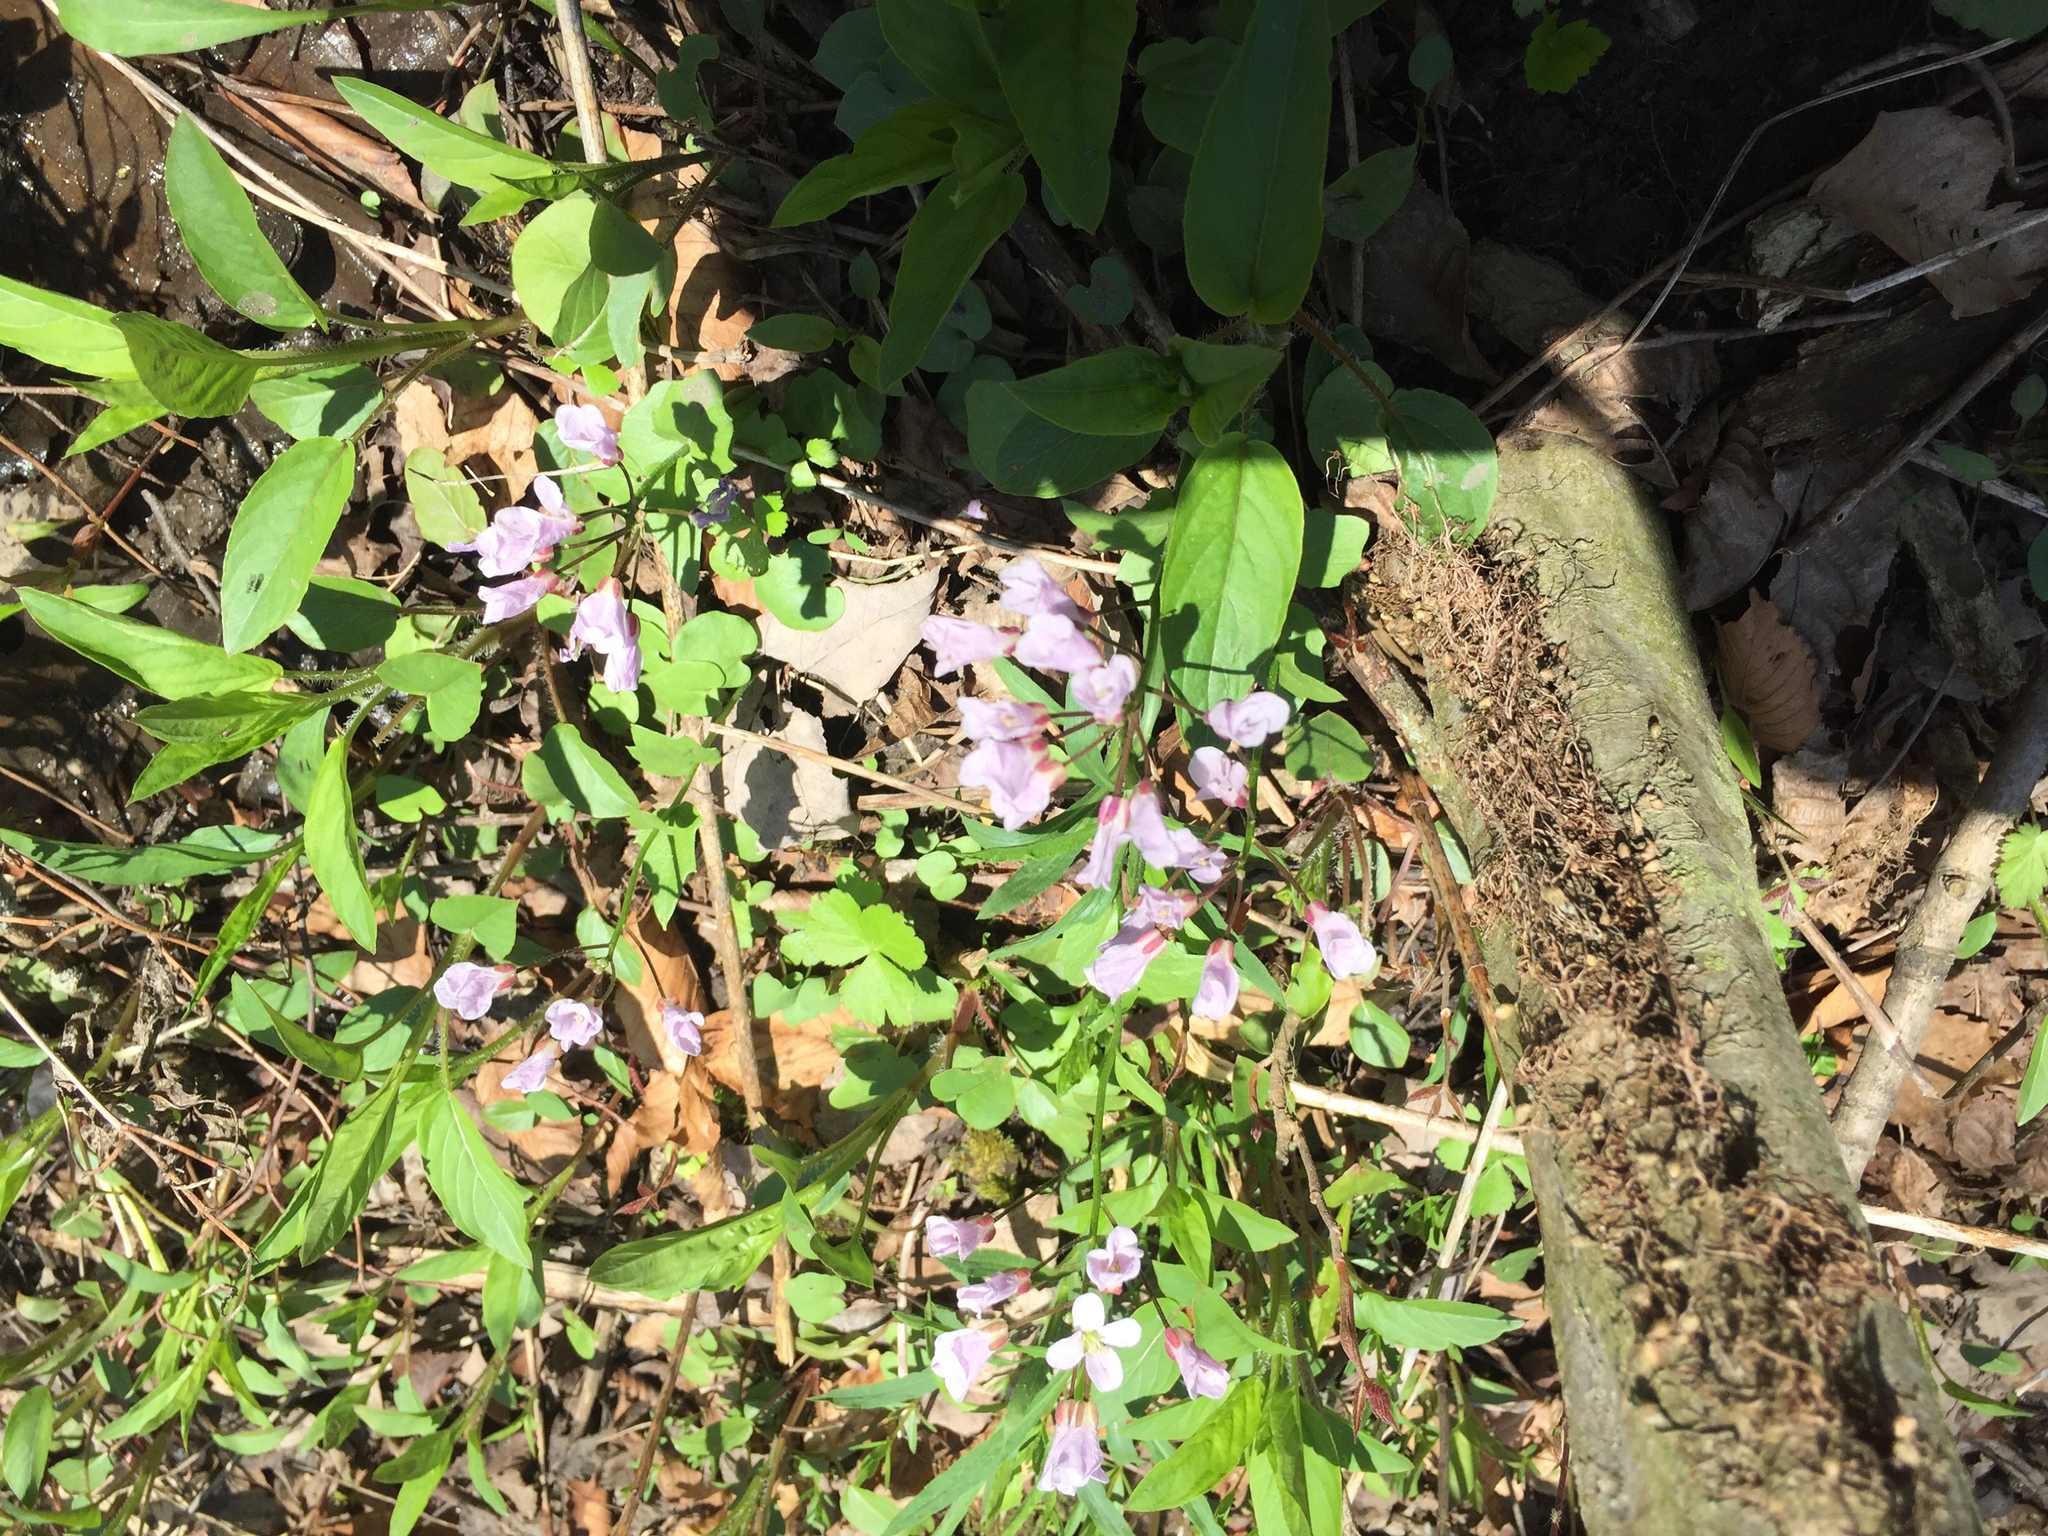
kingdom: Plantae
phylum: Tracheophyta
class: Magnoliopsida
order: Brassicales
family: Brassicaceae
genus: Cardamine
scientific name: Cardamine douglassii
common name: Purple cress
